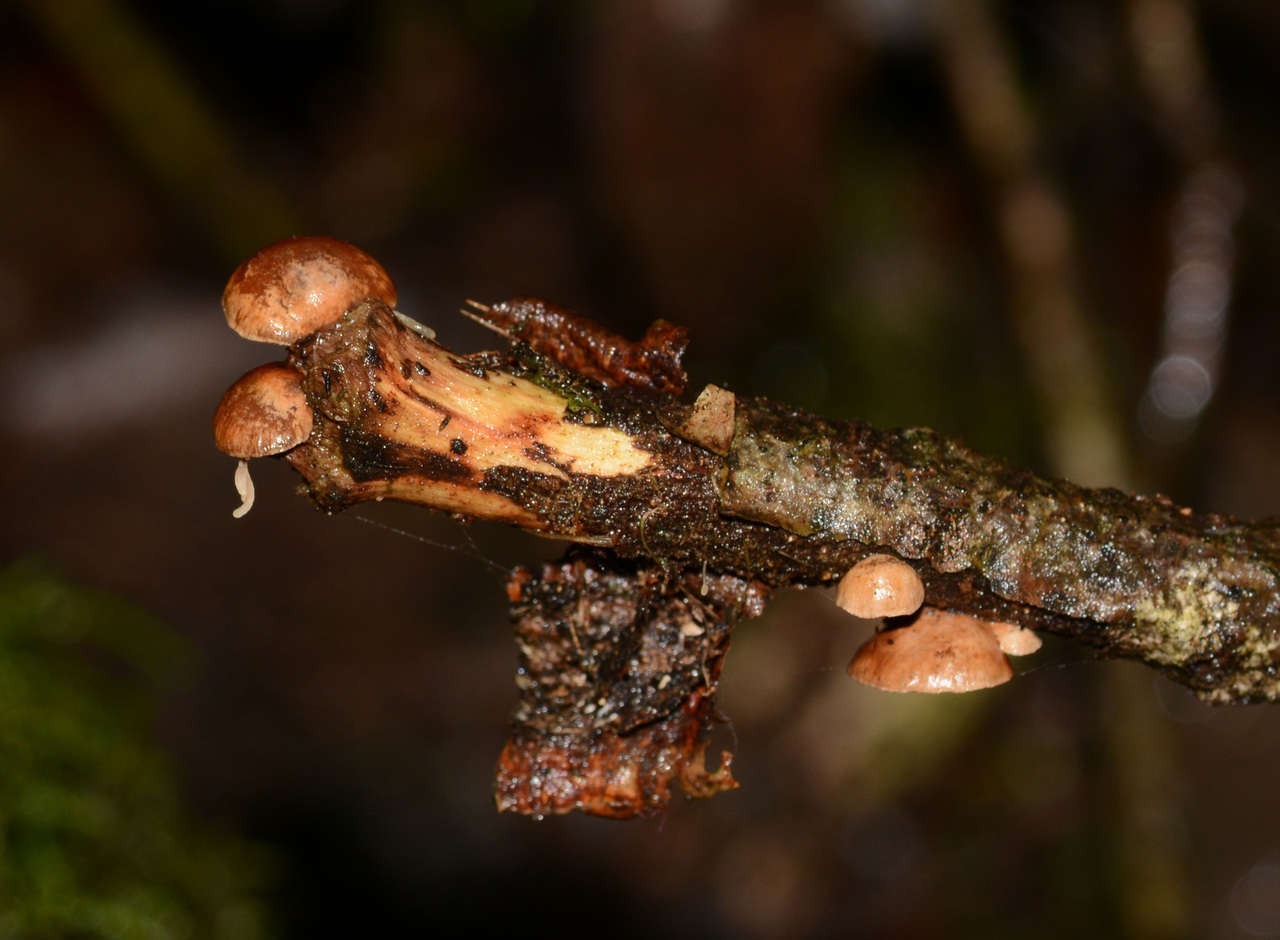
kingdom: Fungi
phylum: Basidiomycota
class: Agaricomycetes
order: Agaricales
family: Strophariaceae
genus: Deconica
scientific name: Deconica horizontalis
